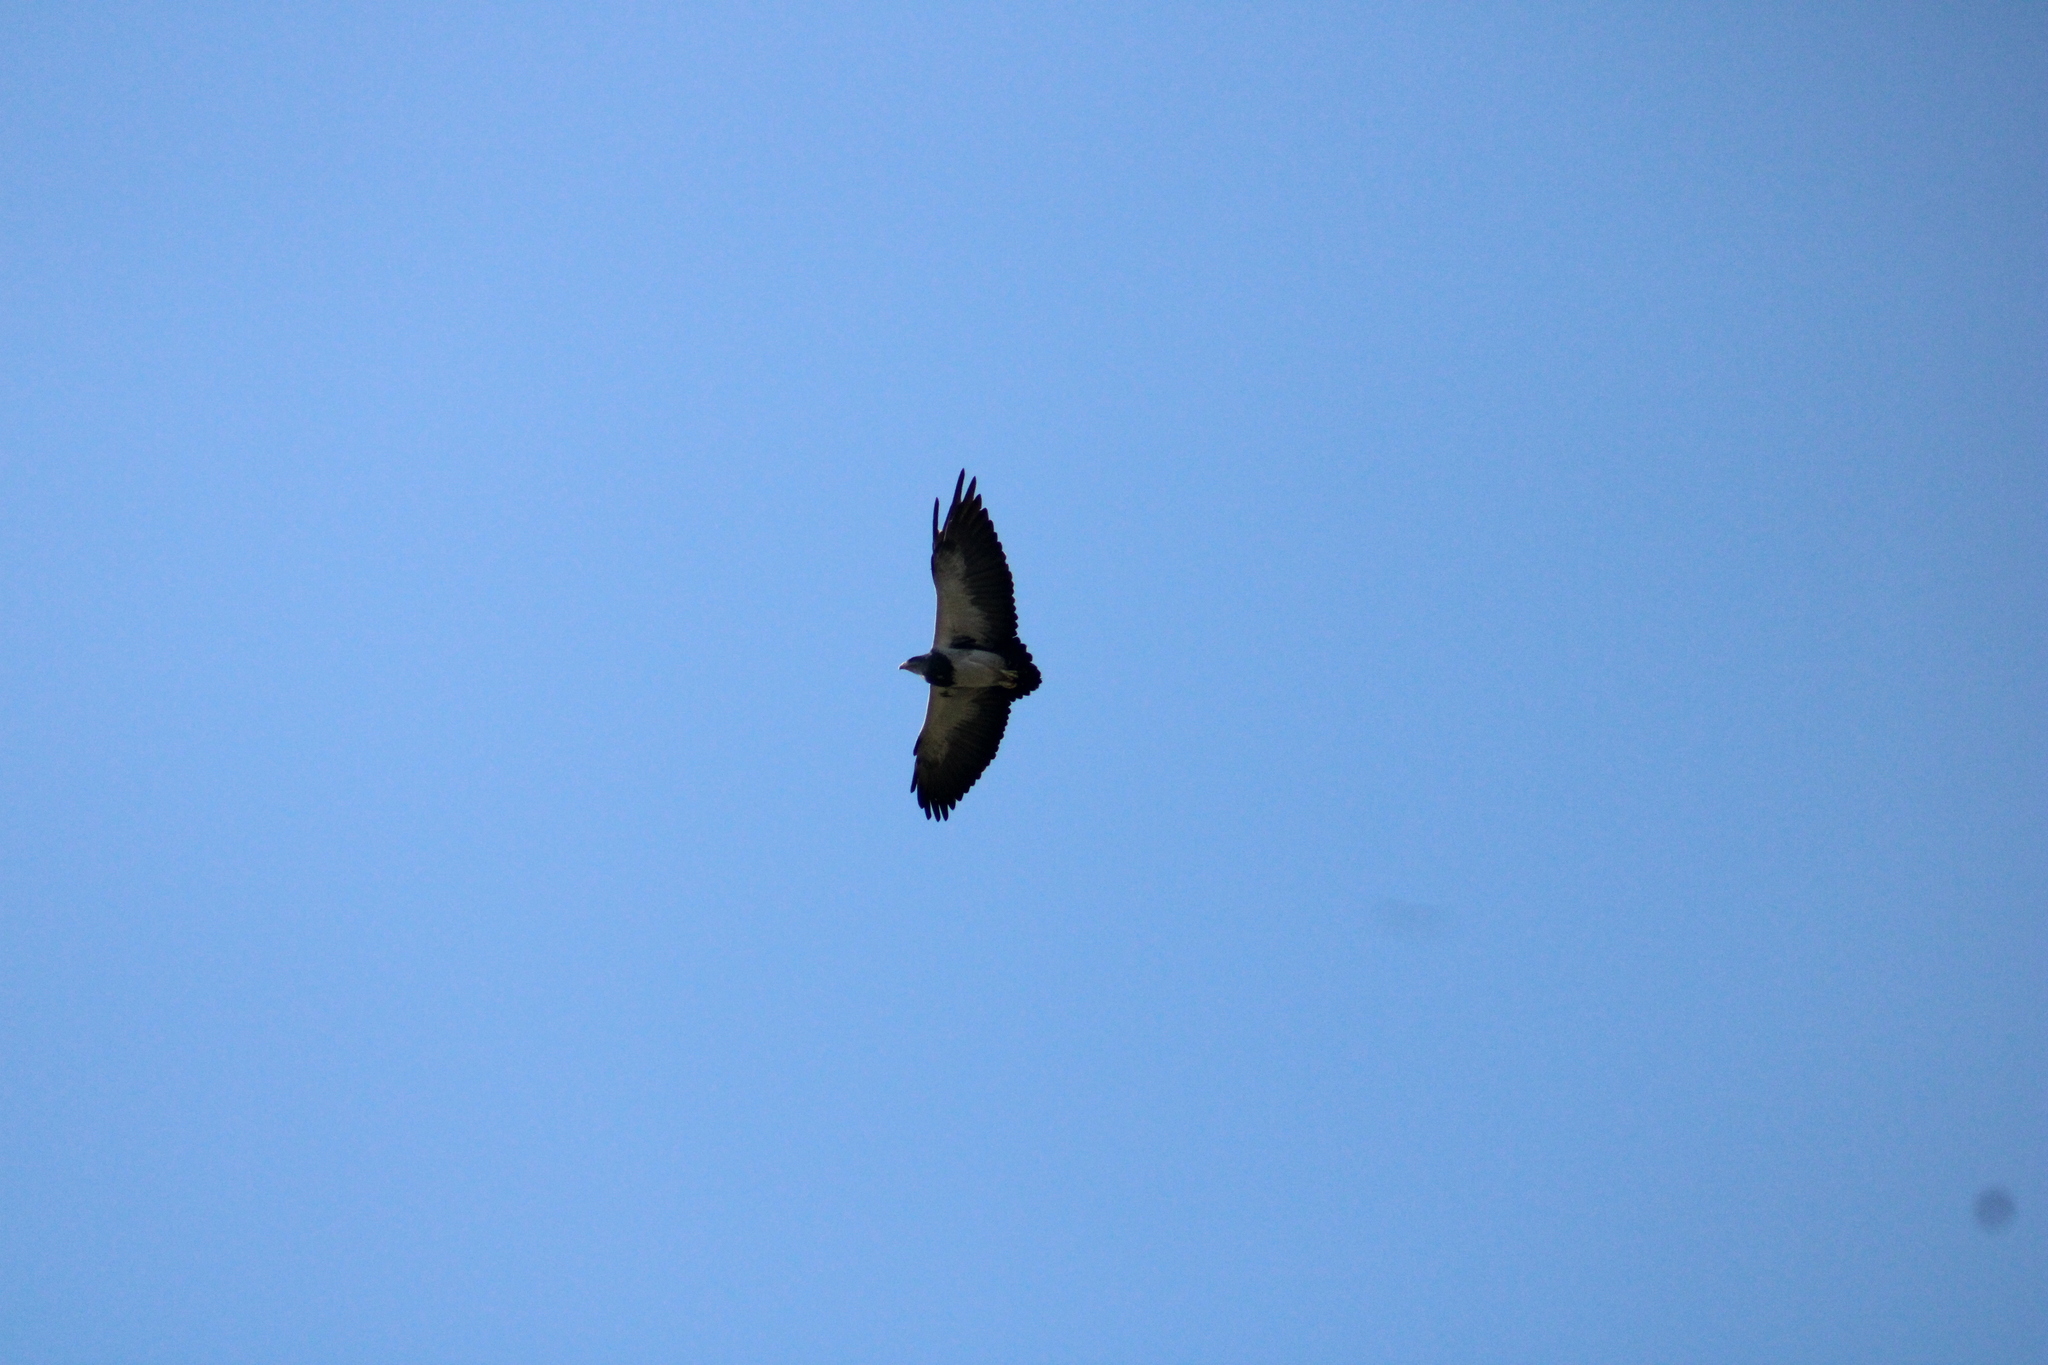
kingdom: Animalia
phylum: Chordata
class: Aves
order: Accipitriformes
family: Accipitridae
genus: Geranoaetus
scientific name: Geranoaetus melanoleucus
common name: Black-chested buzzard-eagle
